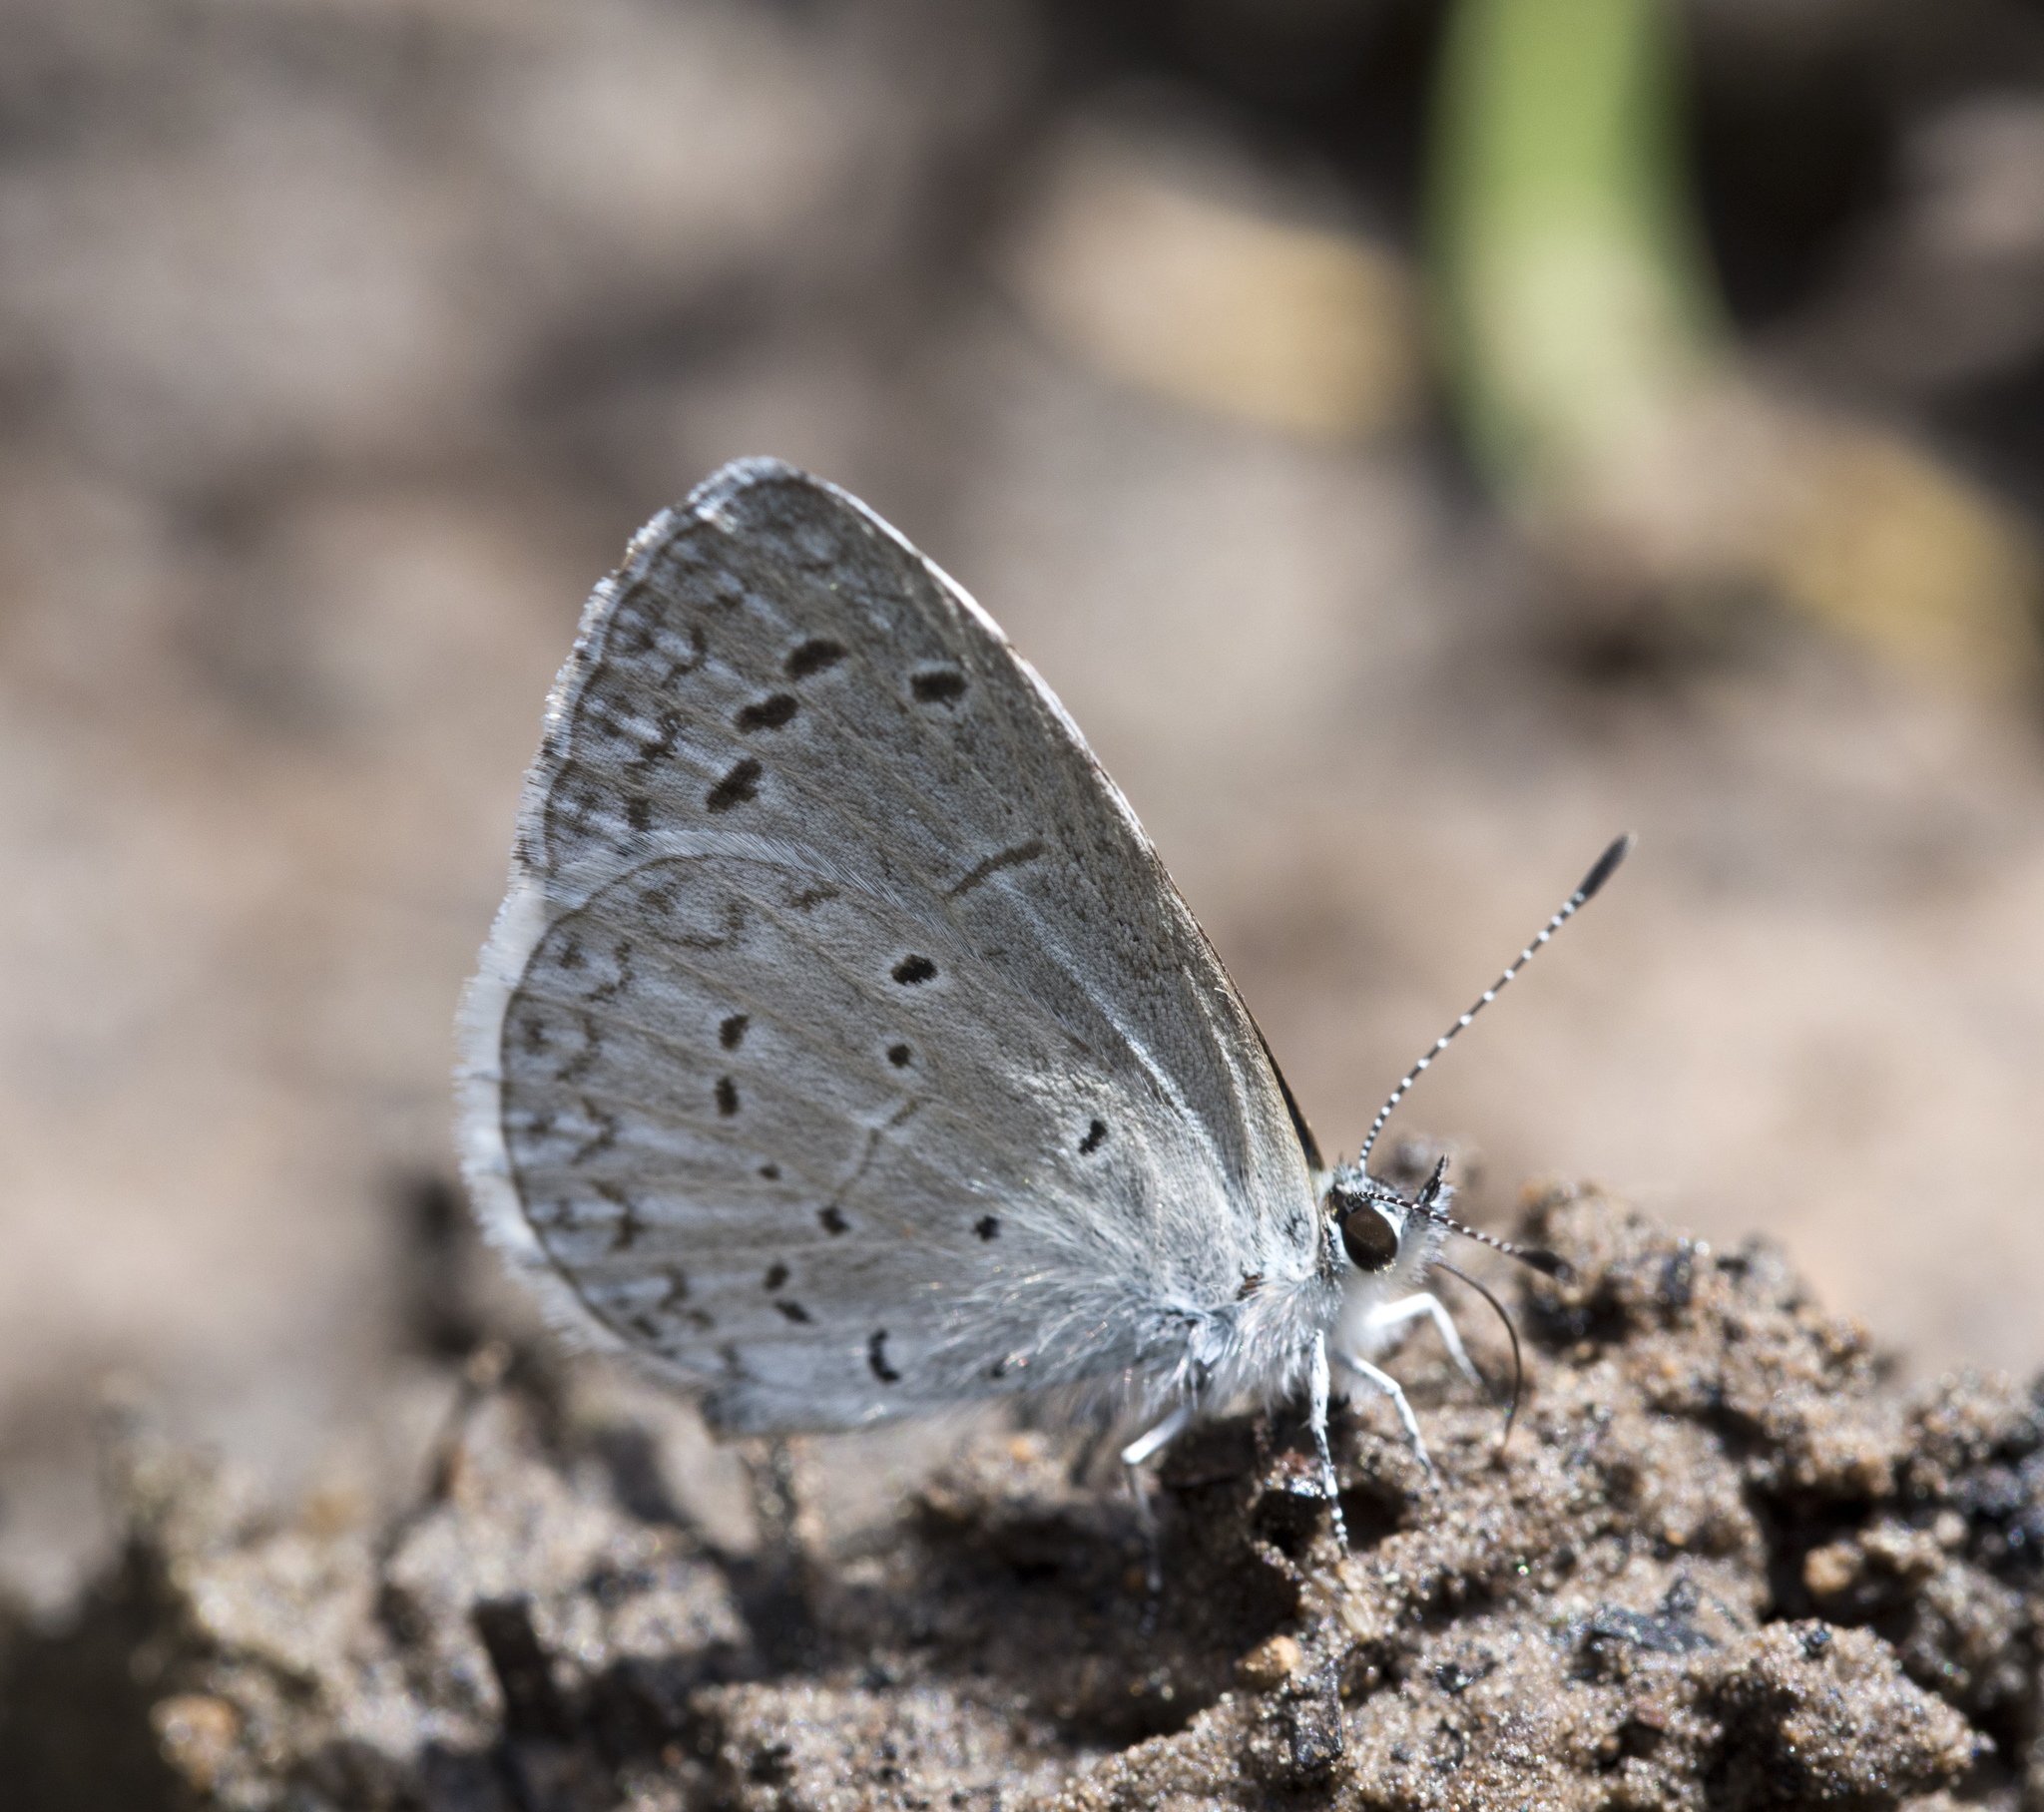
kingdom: Animalia
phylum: Arthropoda
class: Insecta
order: Lepidoptera
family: Lycaenidae
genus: Celastrina
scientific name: Celastrina argiolus
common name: Holly blue
